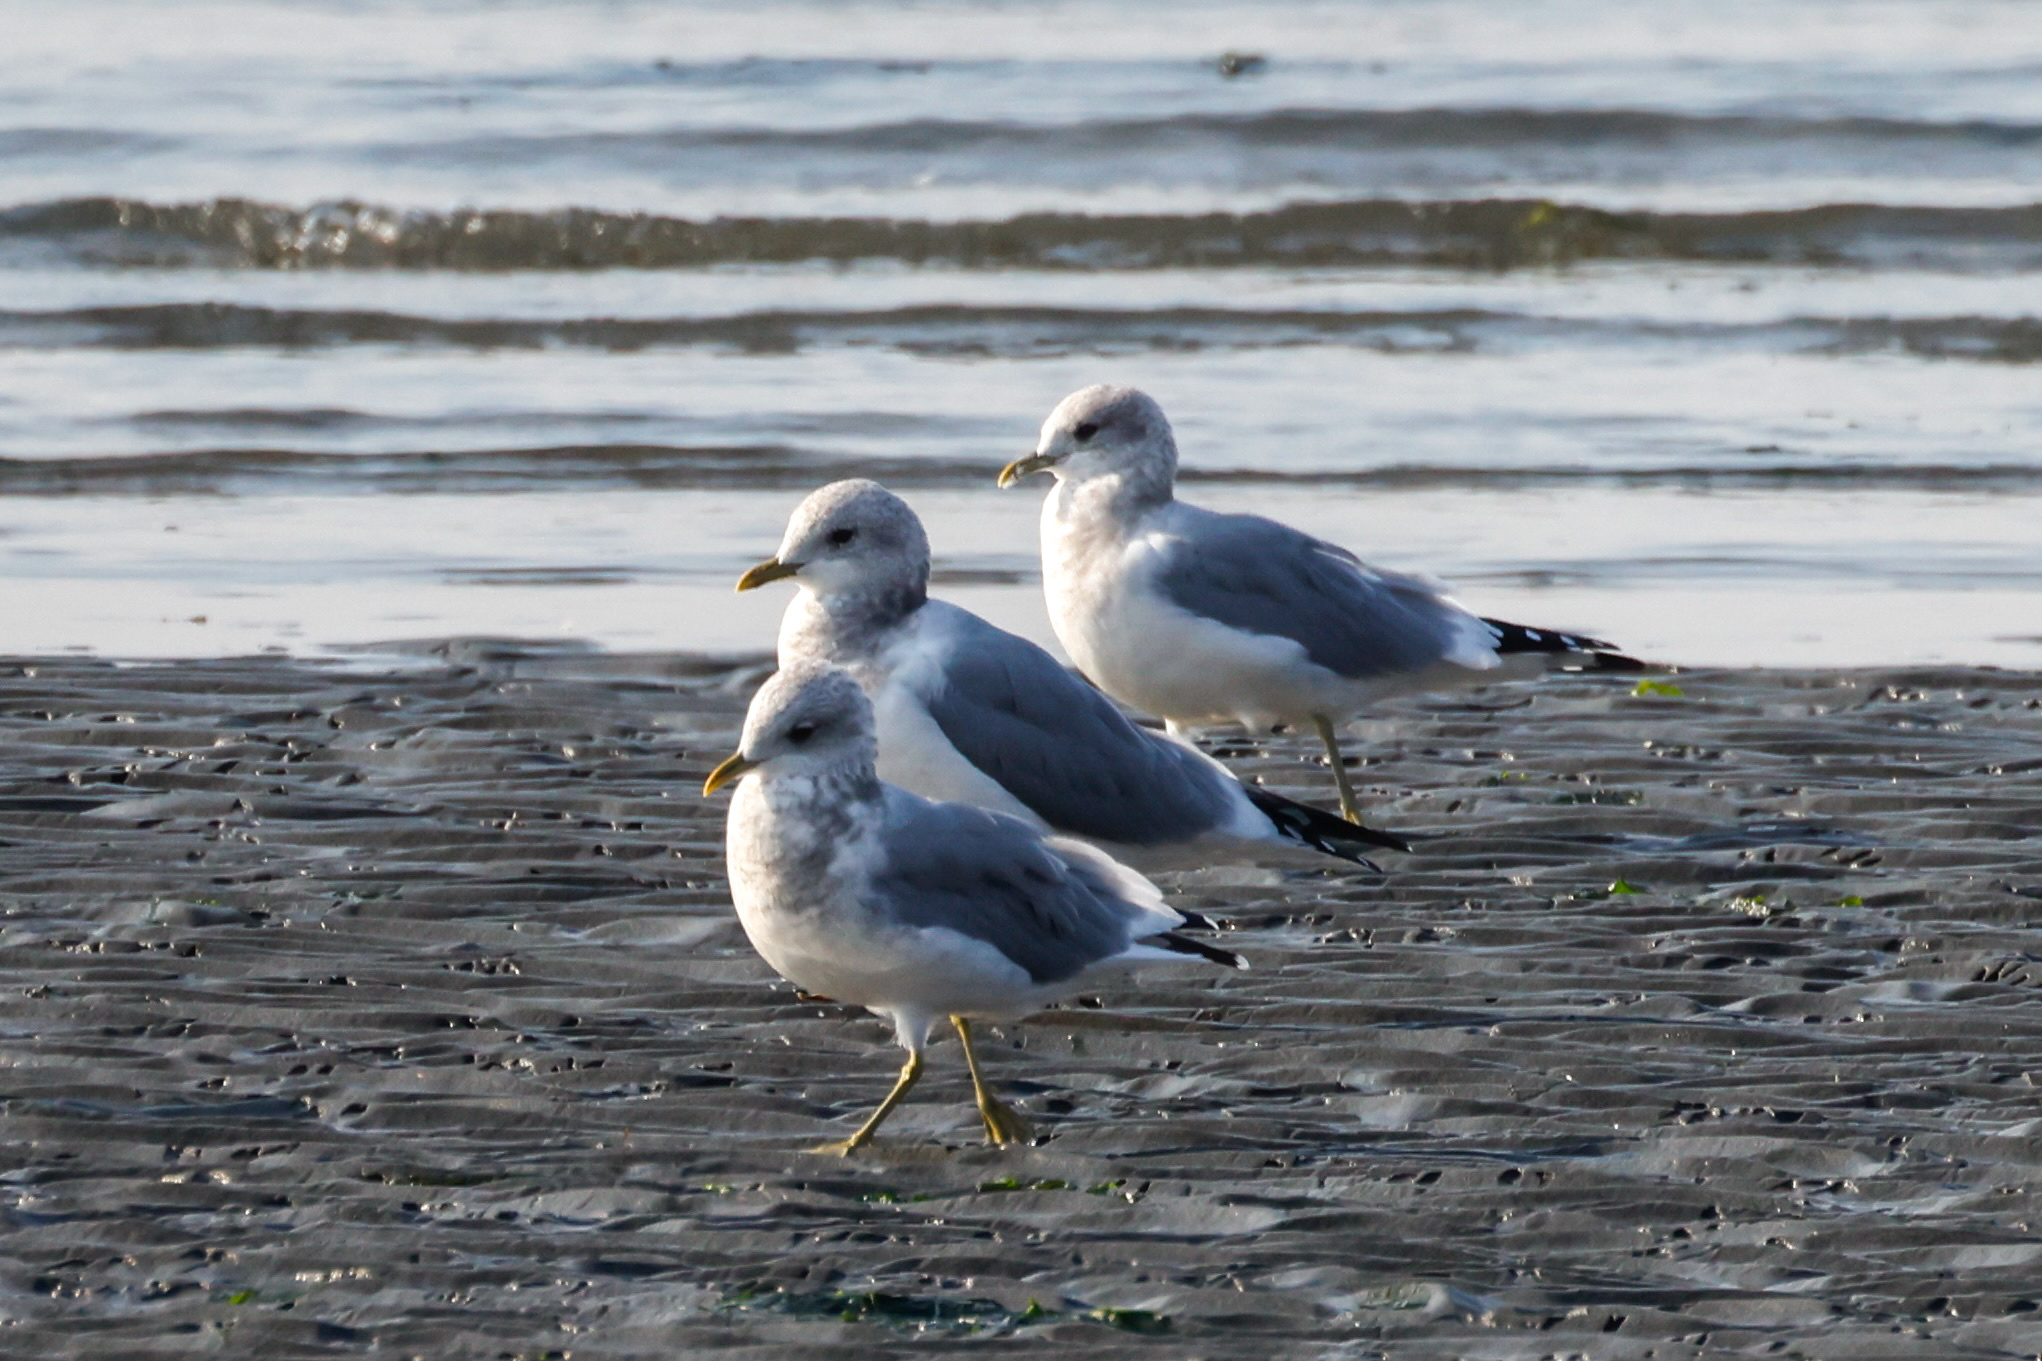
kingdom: Animalia
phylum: Chordata
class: Aves
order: Charadriiformes
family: Laridae
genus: Larus
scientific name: Larus brachyrhynchus
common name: Short-billed gull
